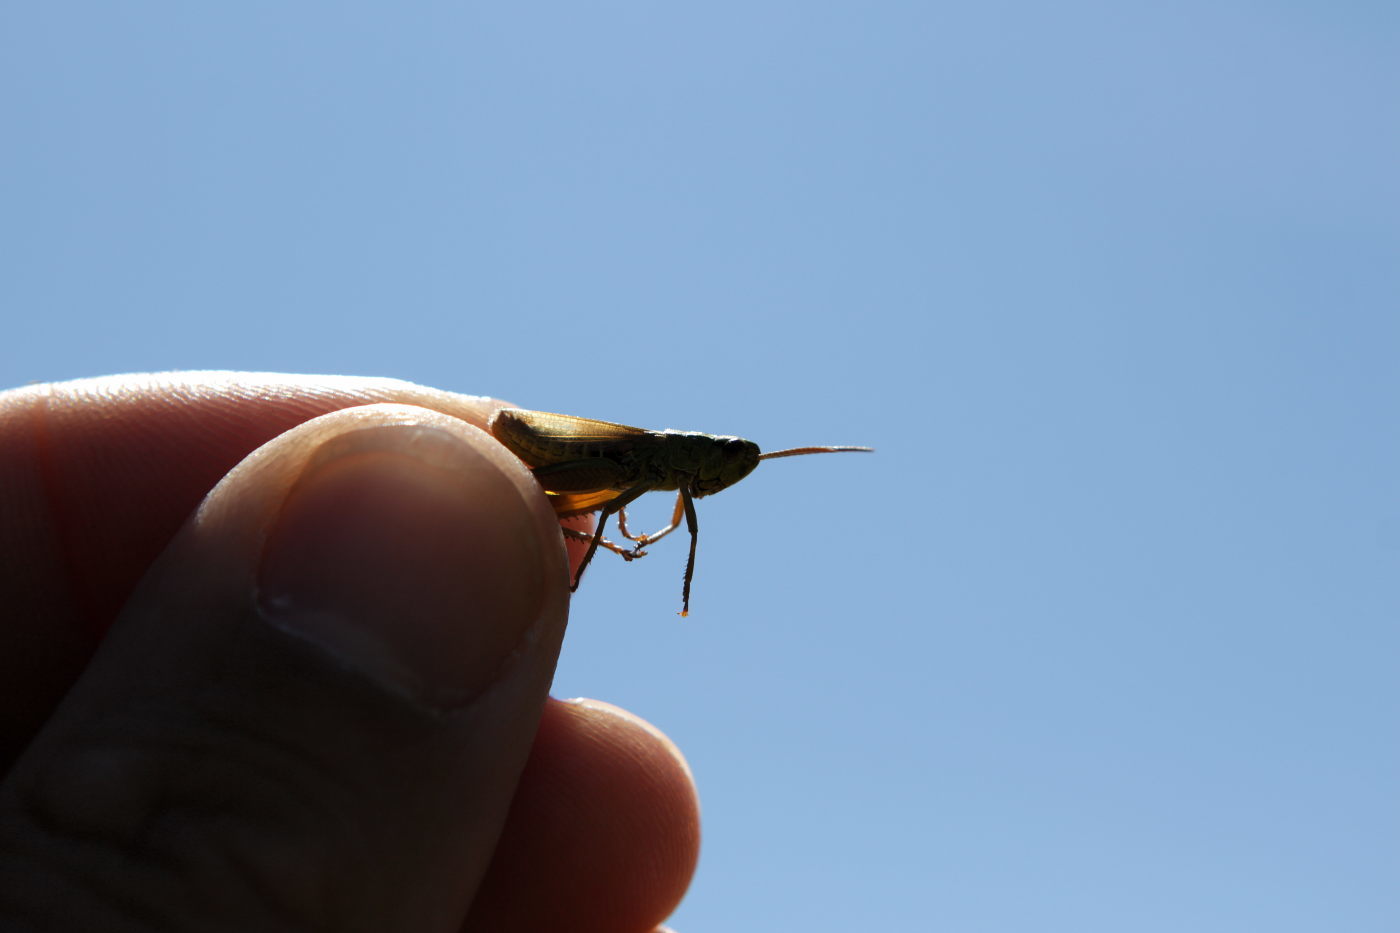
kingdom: Animalia
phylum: Arthropoda
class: Insecta
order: Orthoptera
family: Acrididae
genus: Pseudochorthippus
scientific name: Pseudochorthippus parallelus
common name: Meadow grasshopper
